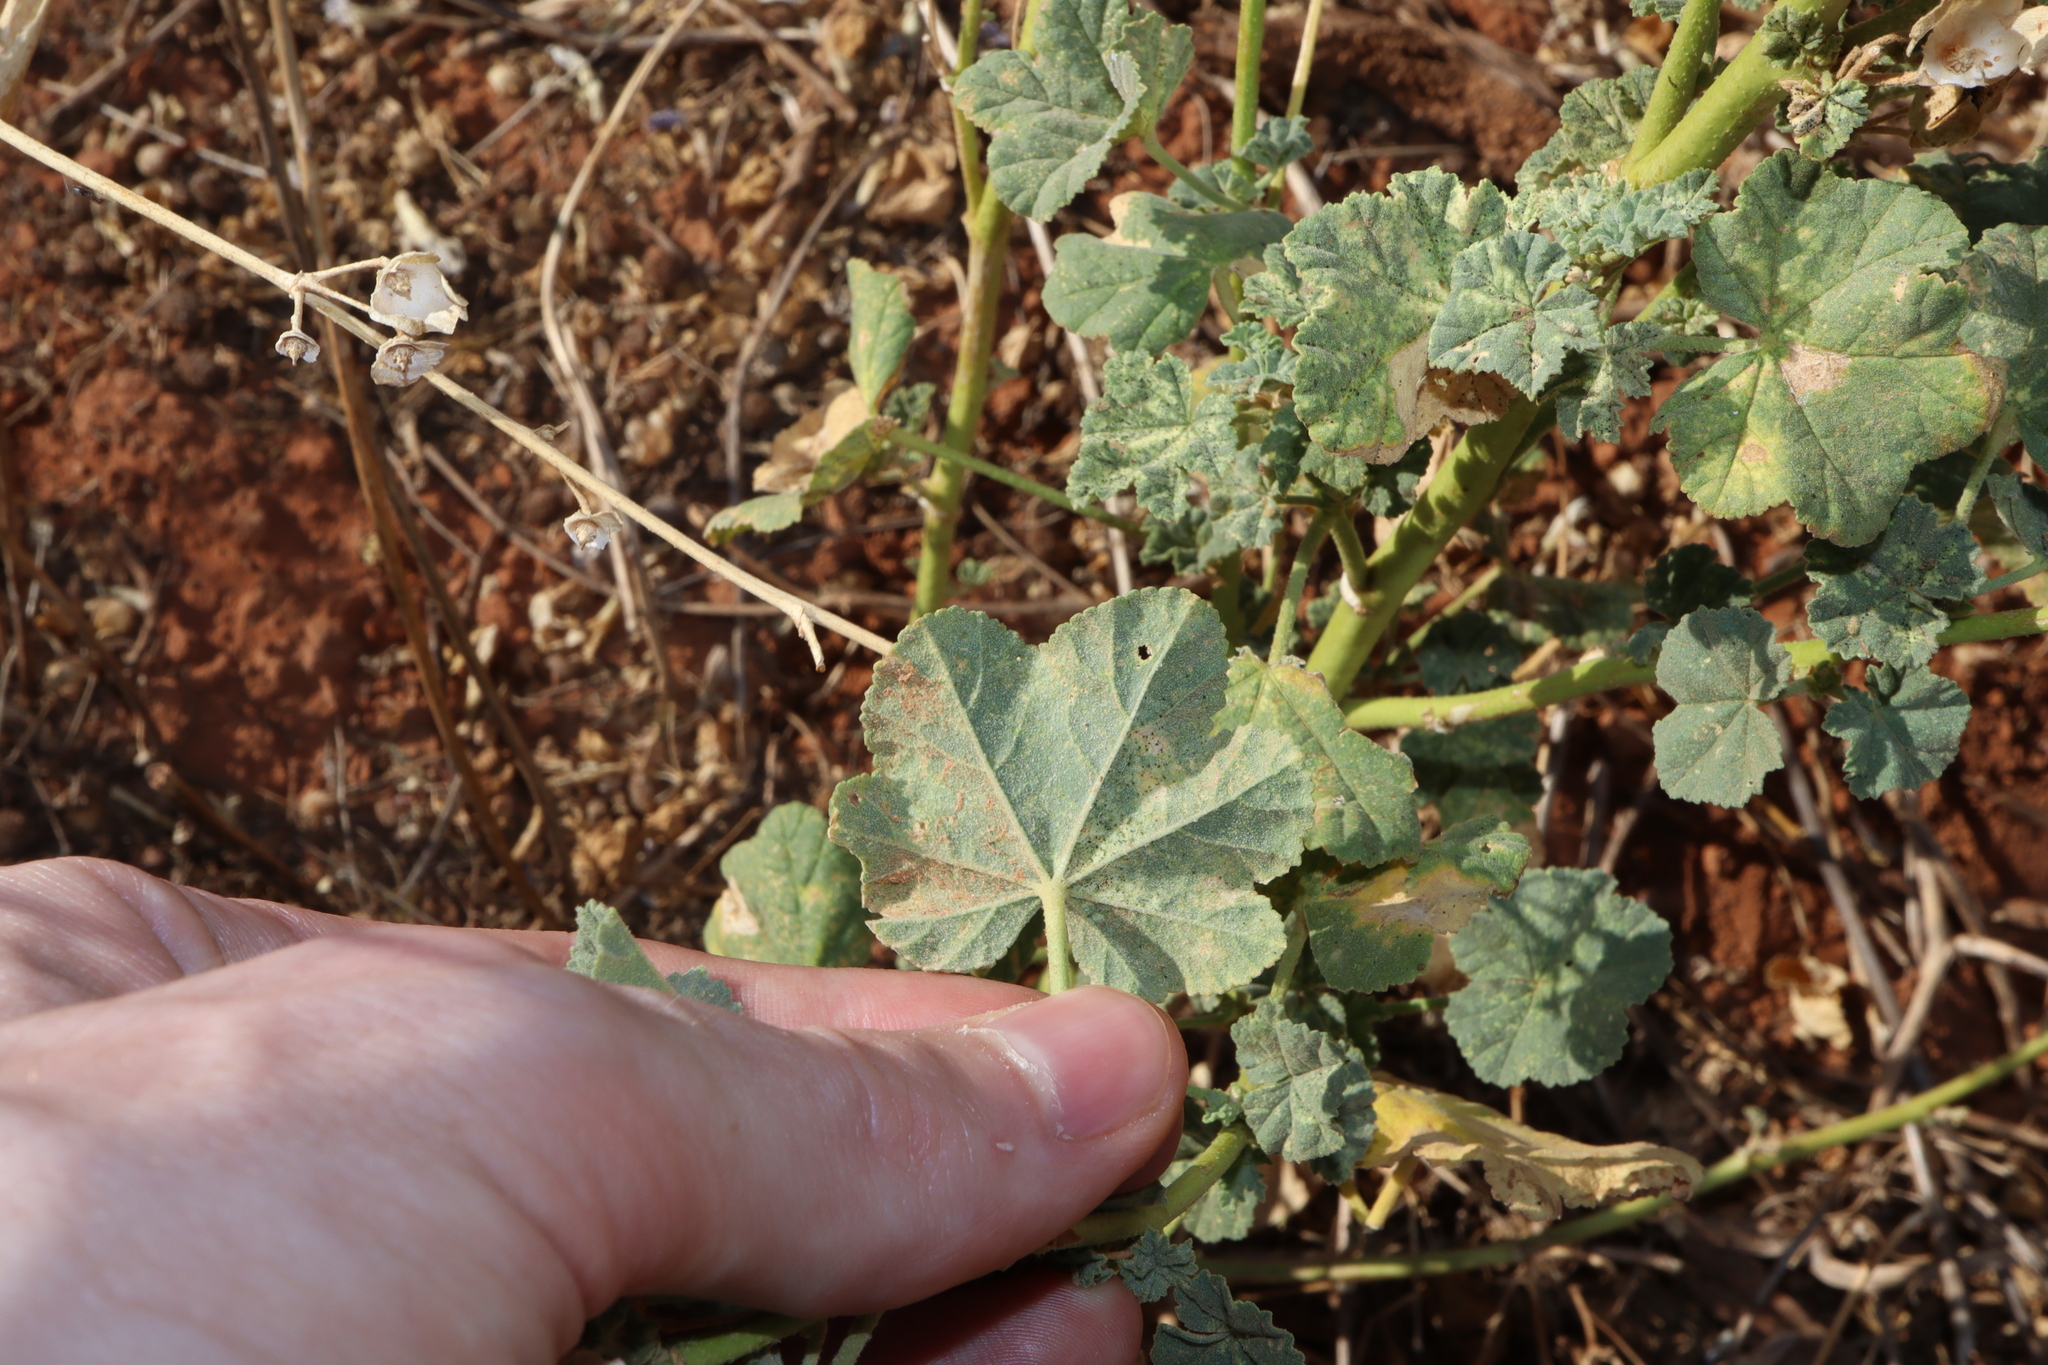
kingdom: Plantae
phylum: Tracheophyta
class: Magnoliopsida
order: Malvales
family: Malvaceae
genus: Malva
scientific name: Malva weinmanniana
